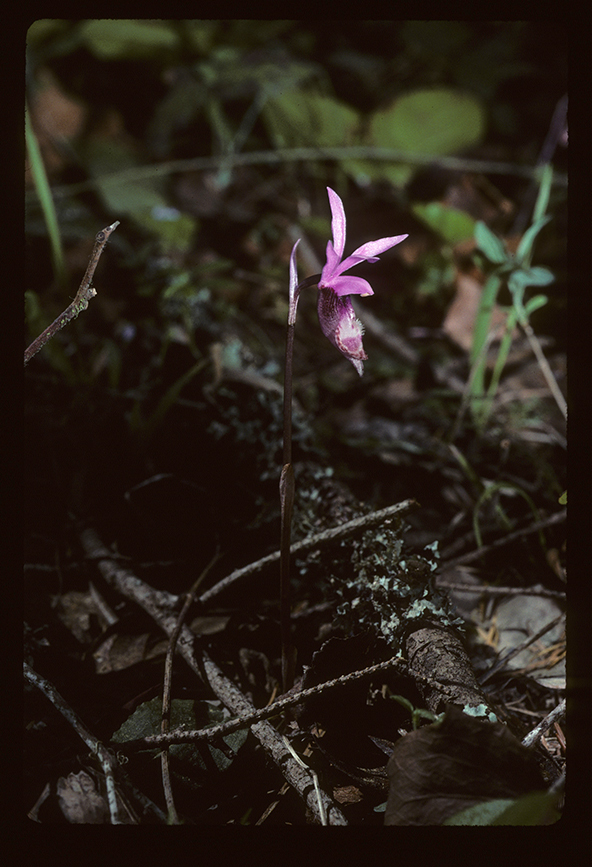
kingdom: Plantae
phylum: Tracheophyta
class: Liliopsida
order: Asparagales
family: Orchidaceae
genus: Calypso
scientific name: Calypso bulbosa
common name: Calypso
